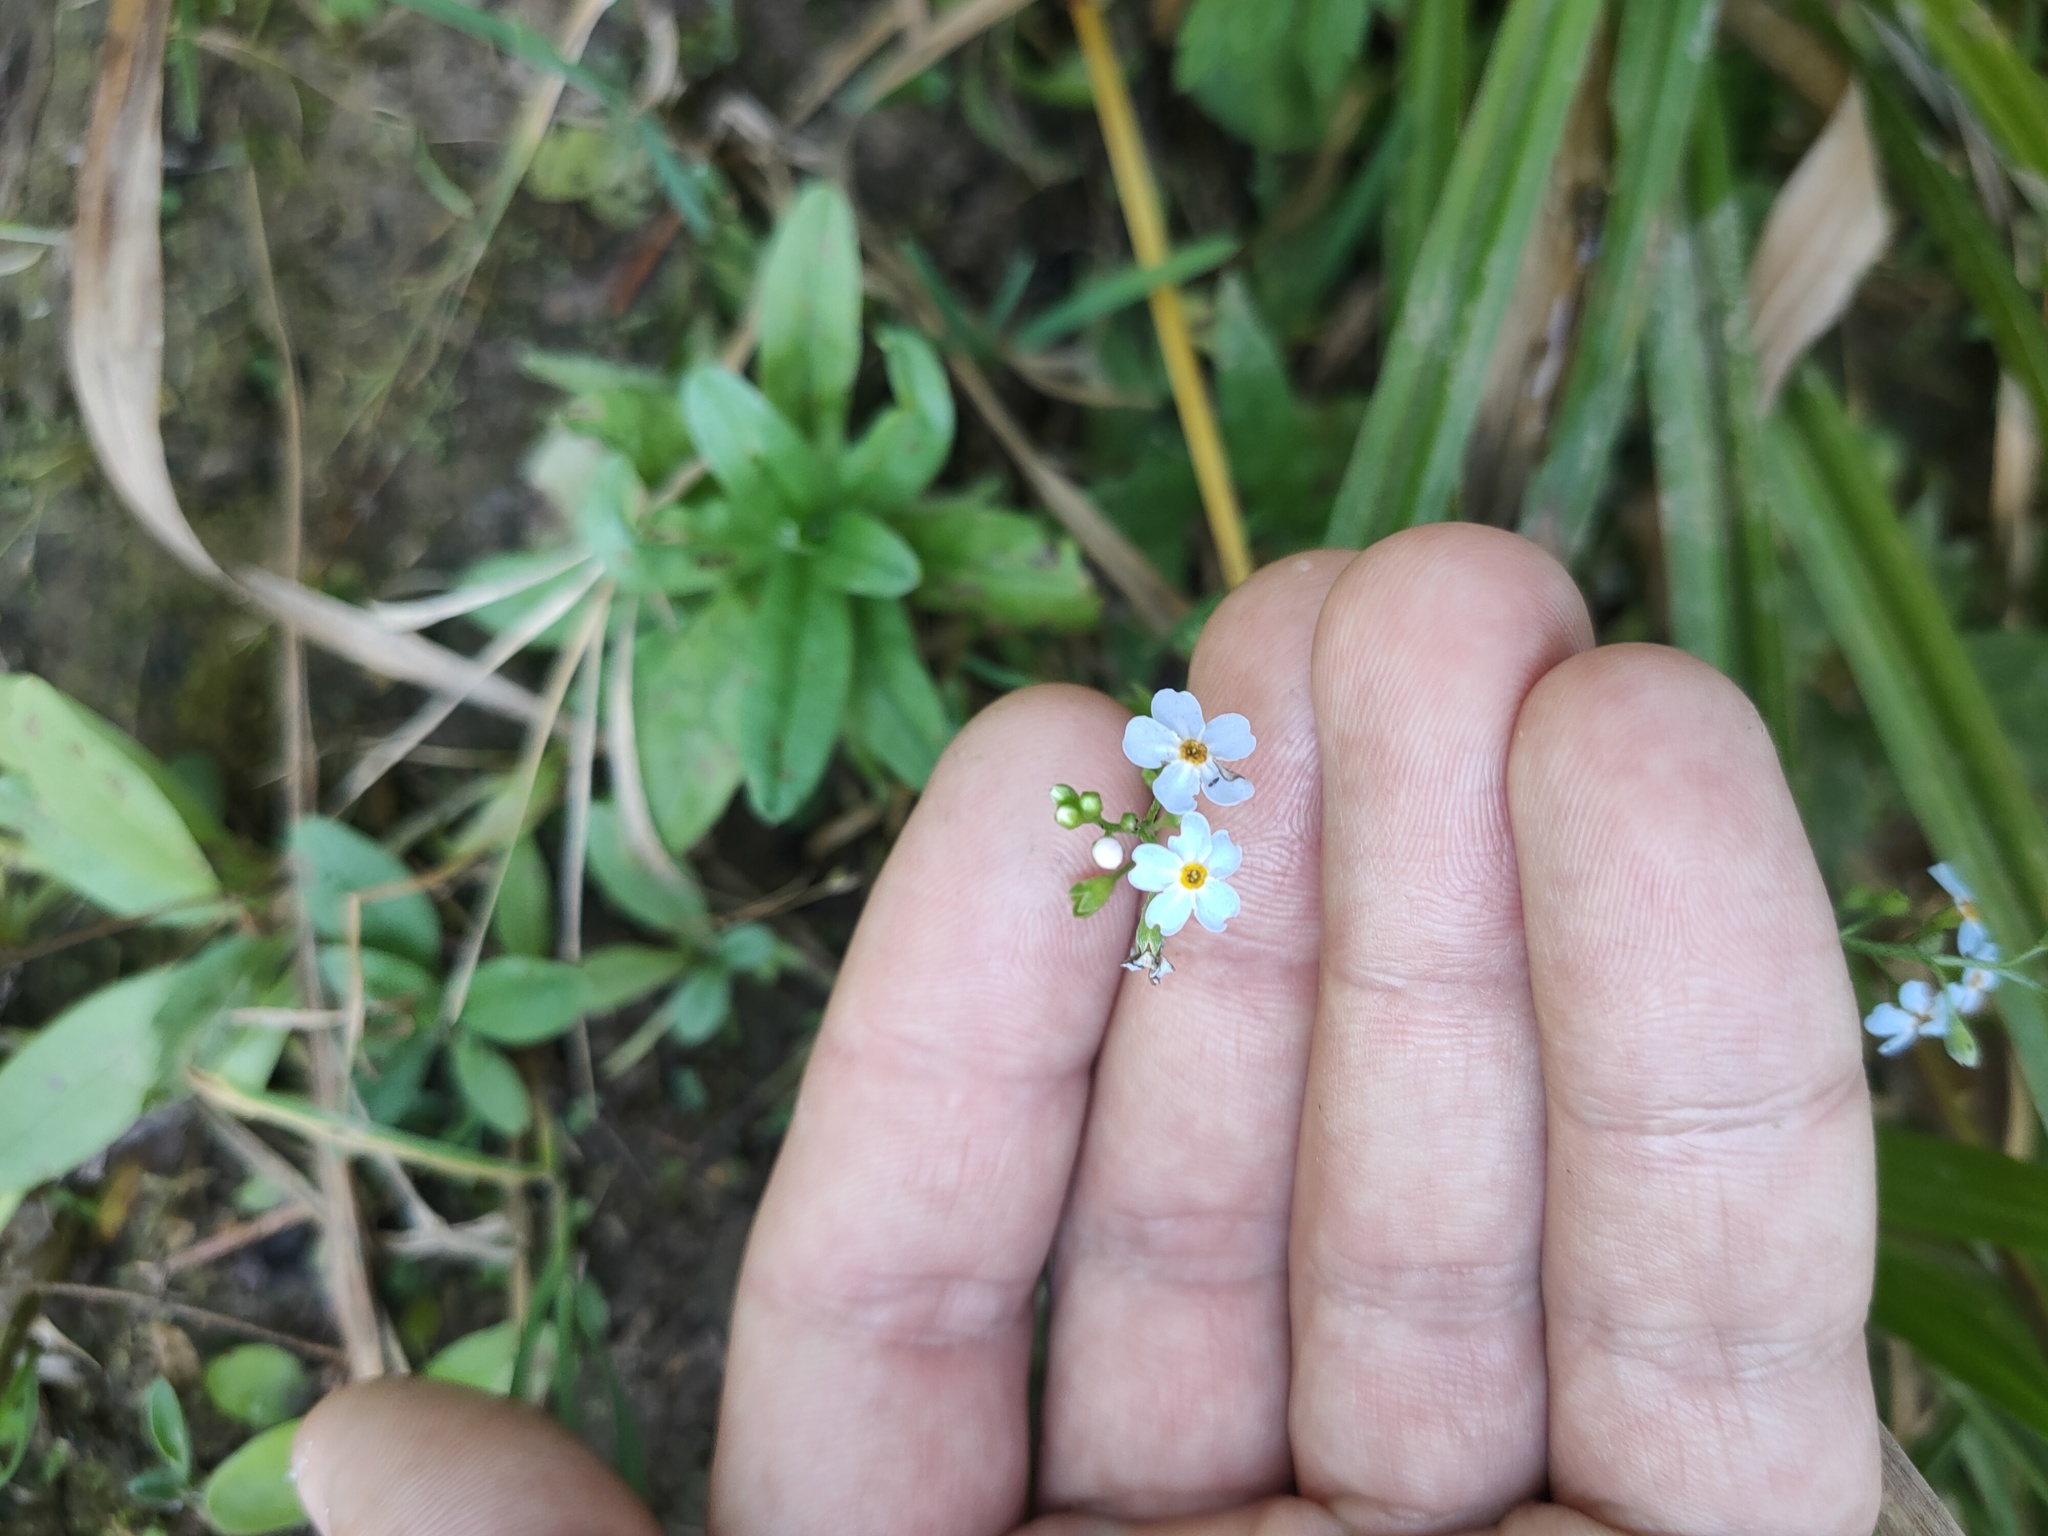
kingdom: Plantae
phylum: Tracheophyta
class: Magnoliopsida
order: Boraginales
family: Boraginaceae
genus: Myosotis
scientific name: Myosotis scorpioides
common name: Water forget-me-not
